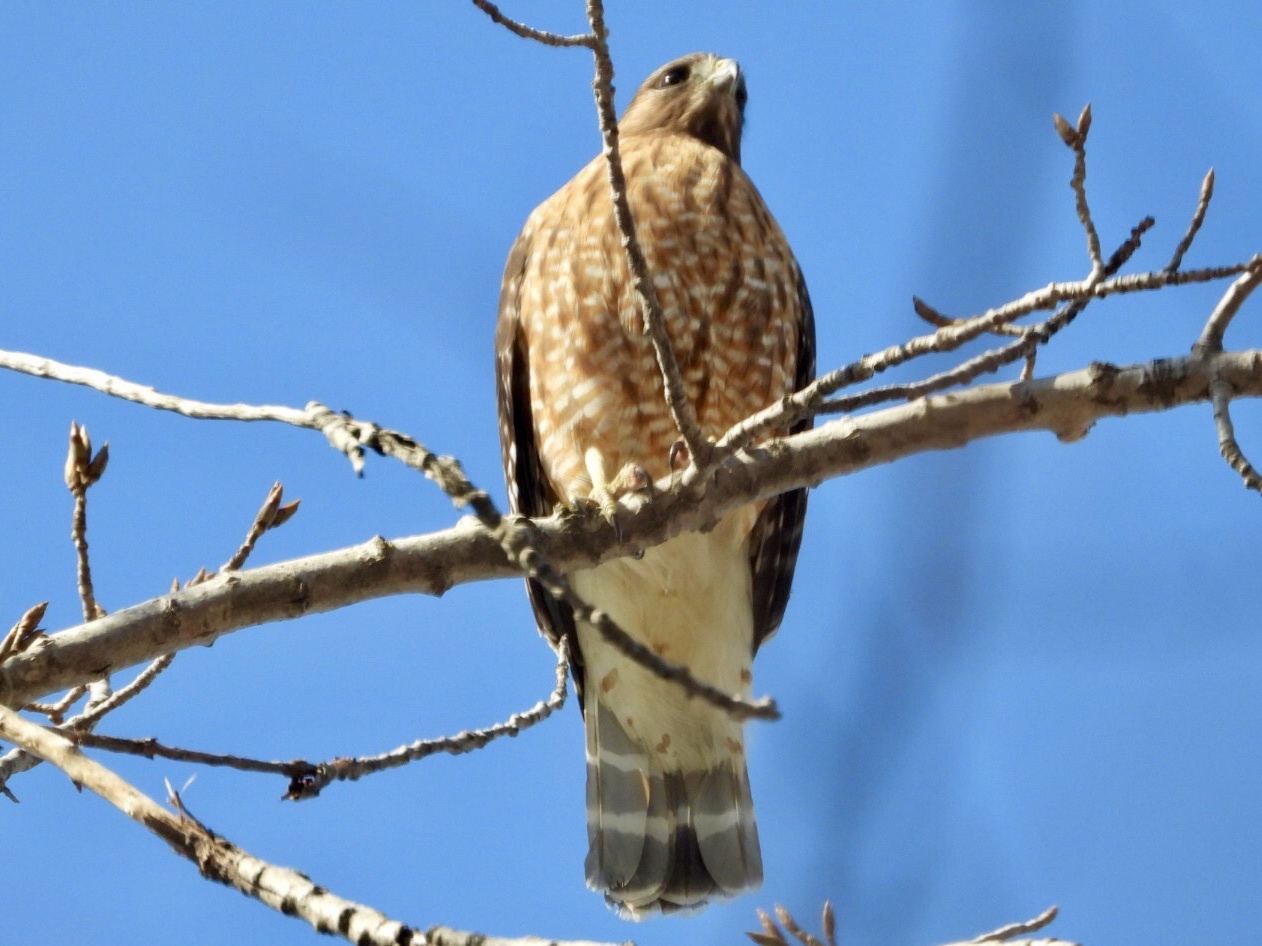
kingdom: Animalia
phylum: Chordata
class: Aves
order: Accipitriformes
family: Accipitridae
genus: Buteo
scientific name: Buteo lineatus
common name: Red-shouldered hawk
